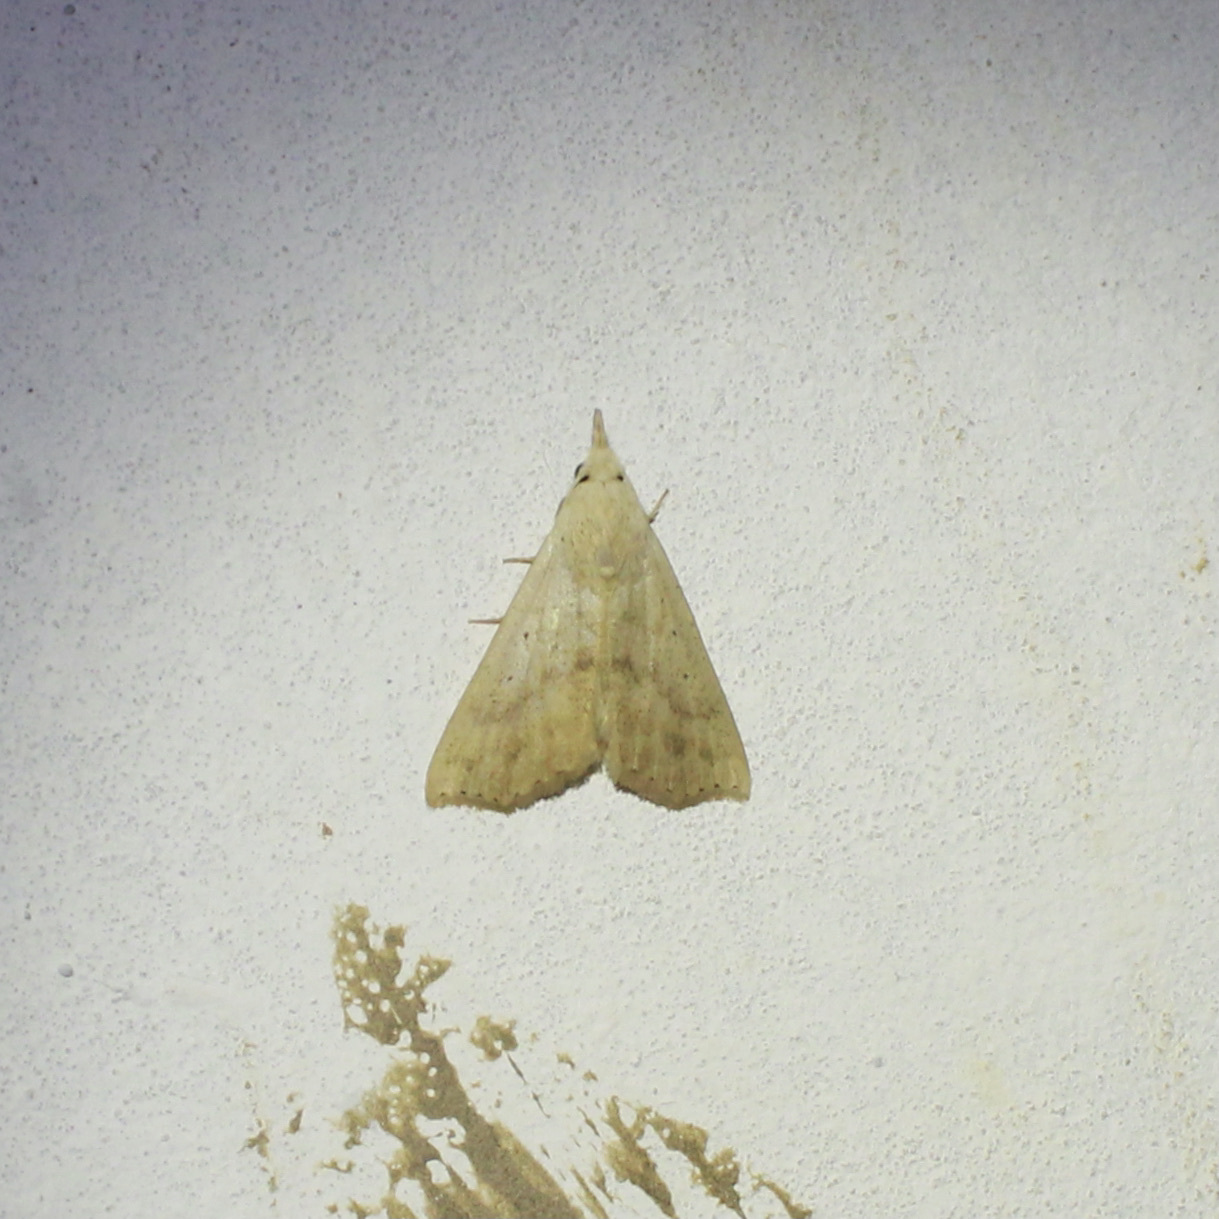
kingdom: Animalia
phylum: Arthropoda
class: Insecta
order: Lepidoptera
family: Erebidae
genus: Hyamia
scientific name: Hyamia unicolorata
